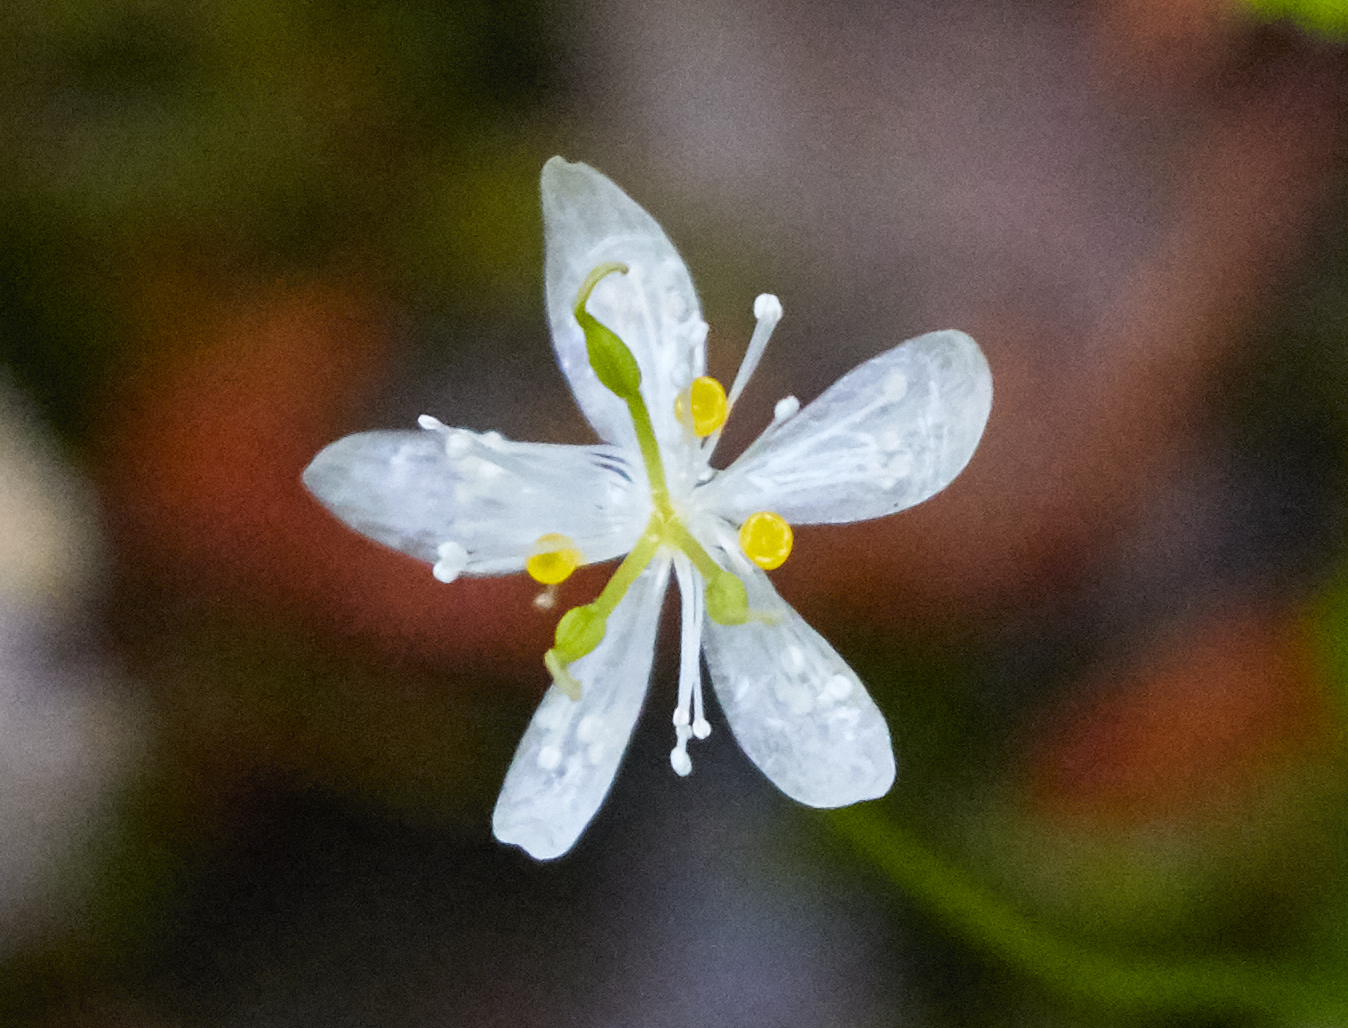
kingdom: Plantae
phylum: Tracheophyta
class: Magnoliopsida
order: Ranunculales
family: Ranunculaceae
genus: Coptis
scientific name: Coptis trifolia
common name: Canker-root
